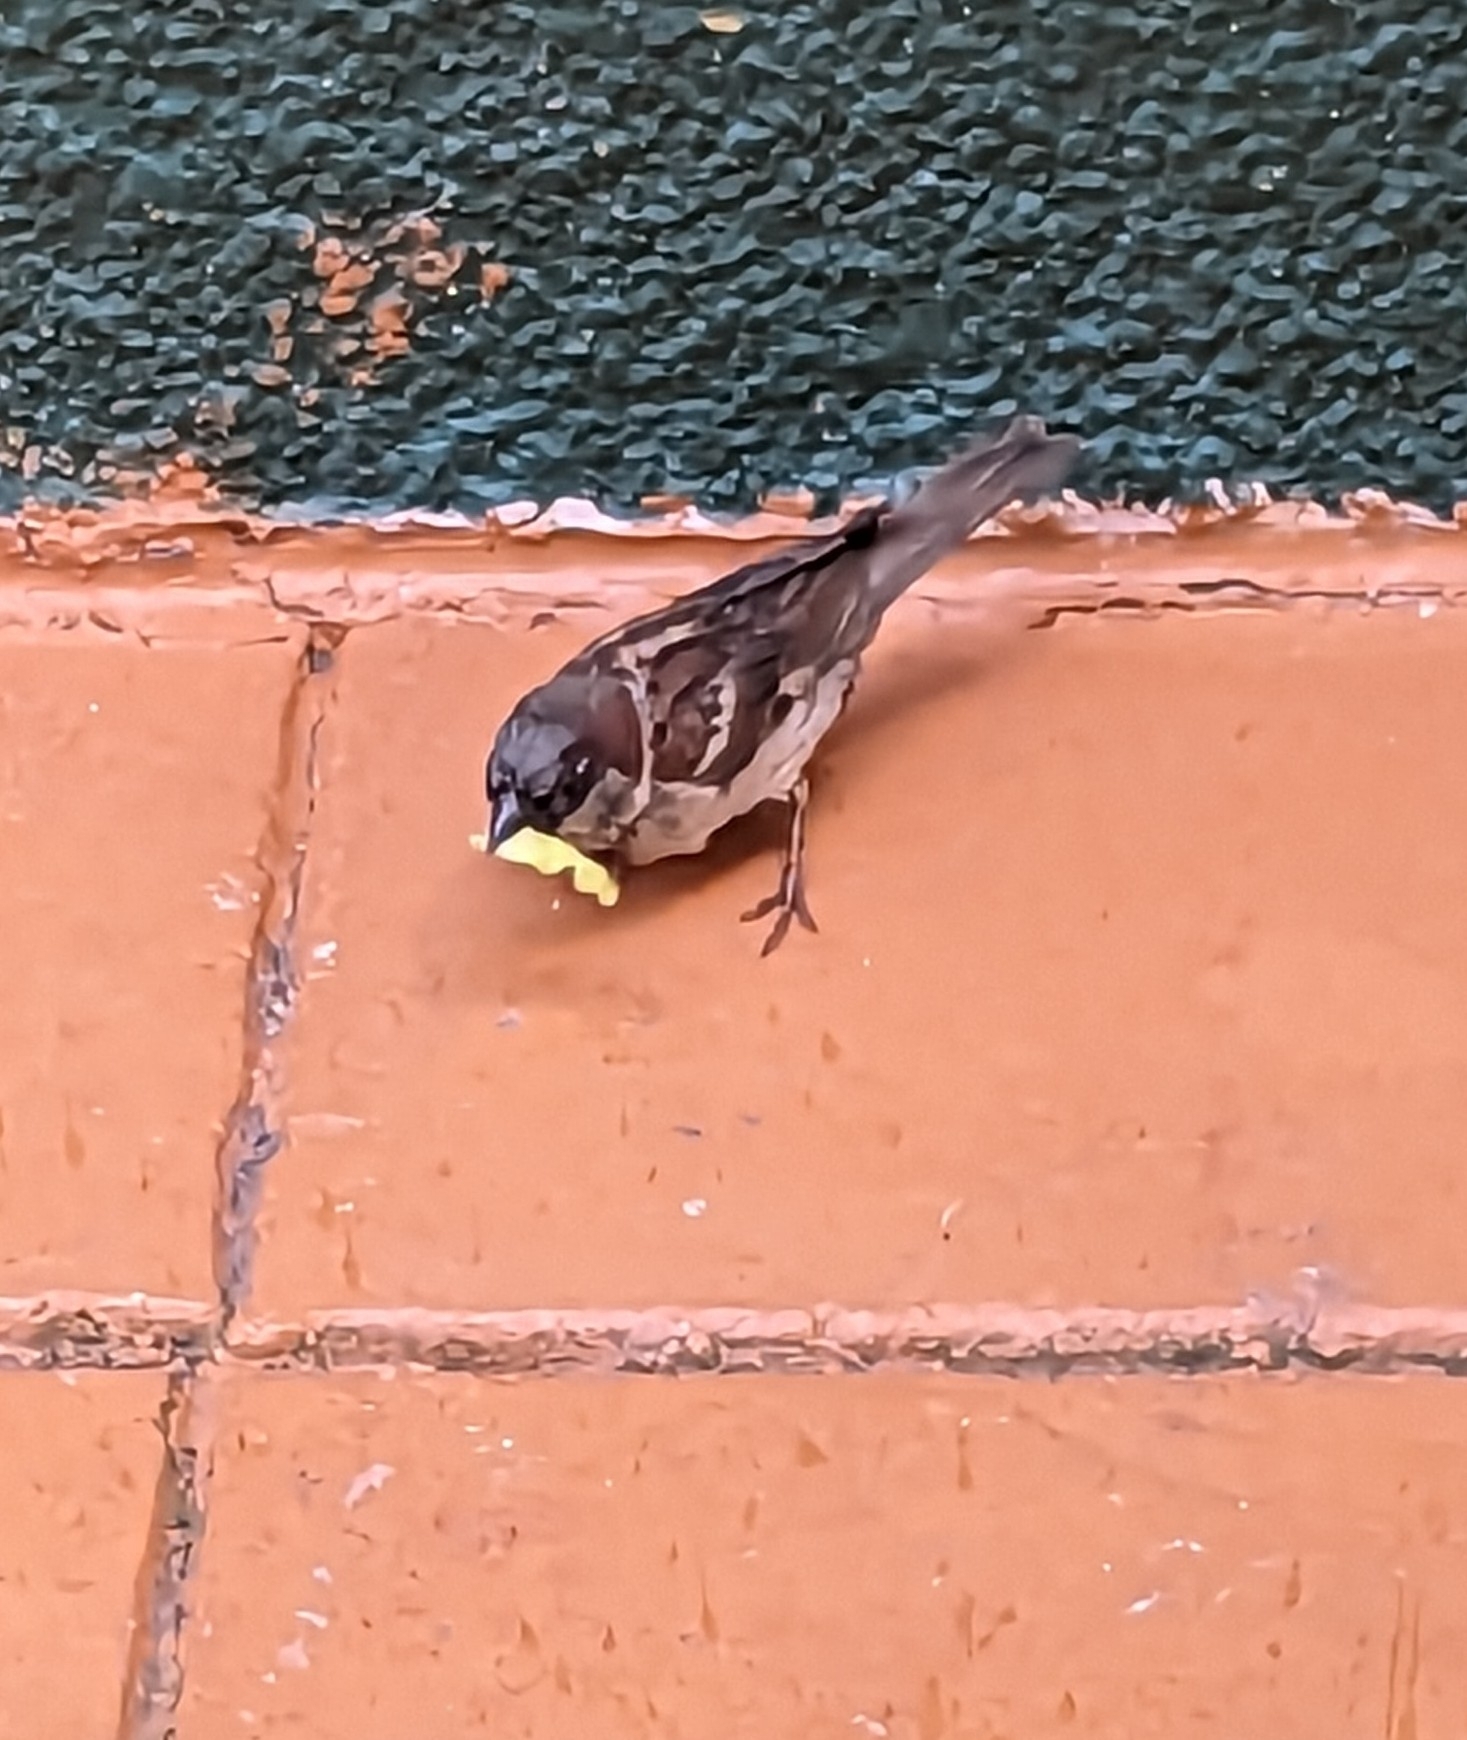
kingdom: Animalia
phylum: Chordata
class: Aves
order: Passeriformes
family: Passeridae
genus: Passer
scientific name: Passer domesticus
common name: House sparrow
